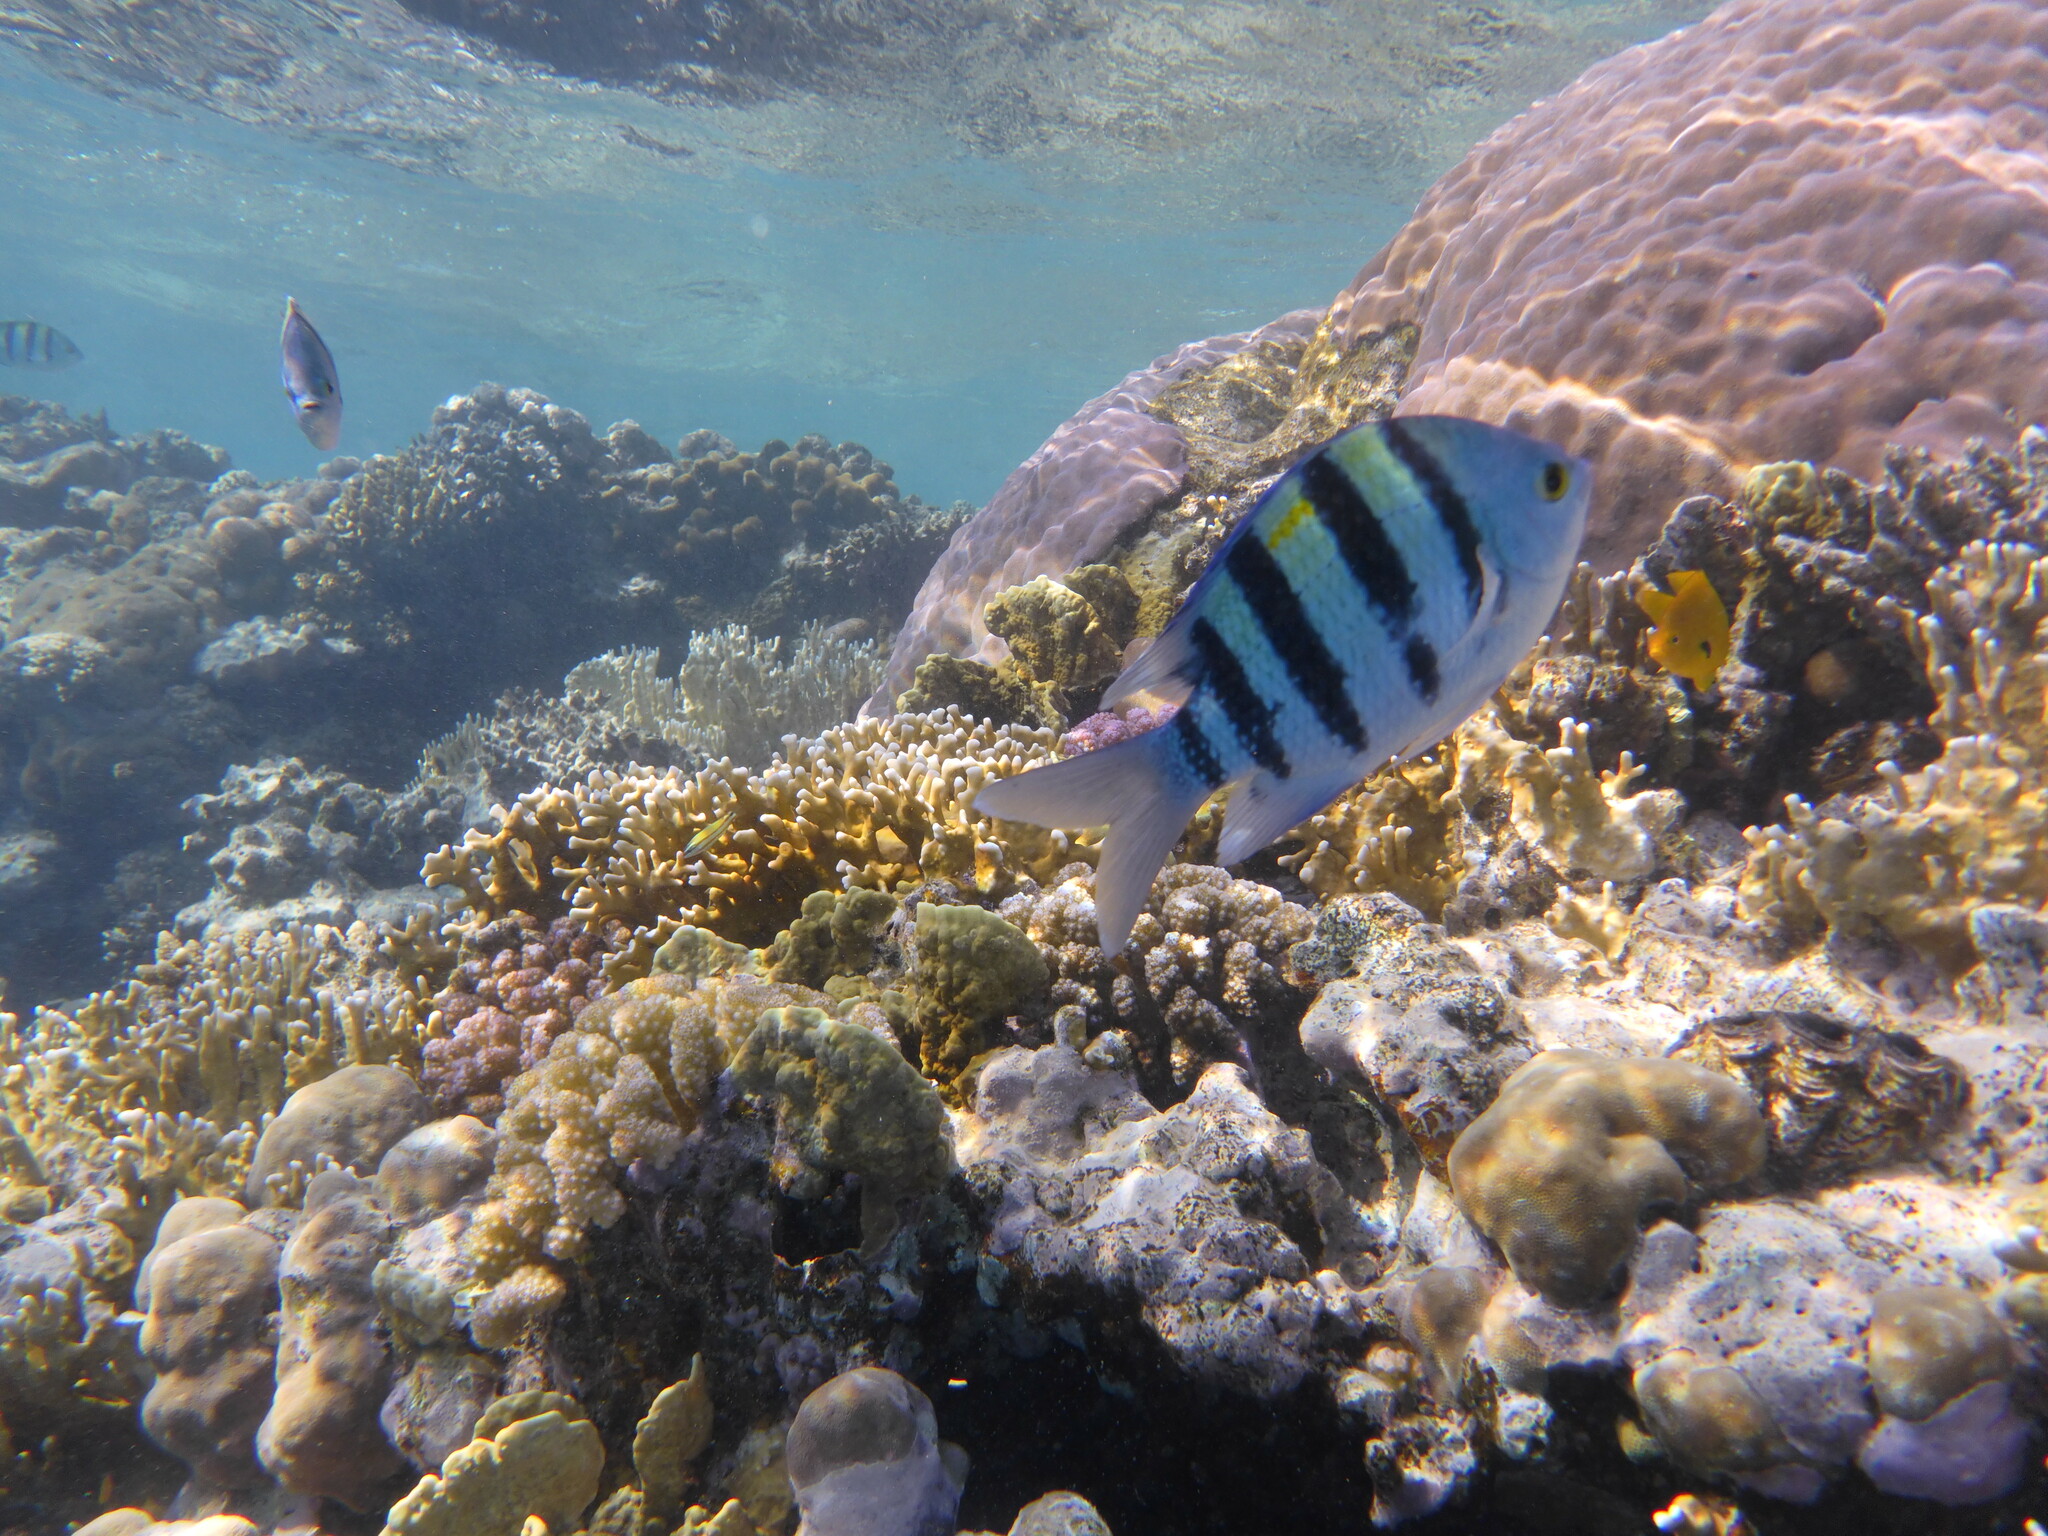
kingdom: Animalia
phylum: Chordata
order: Perciformes
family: Pomacentridae
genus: Abudefduf
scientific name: Abudefduf vaigiensis
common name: Indo-pacific sergeant
